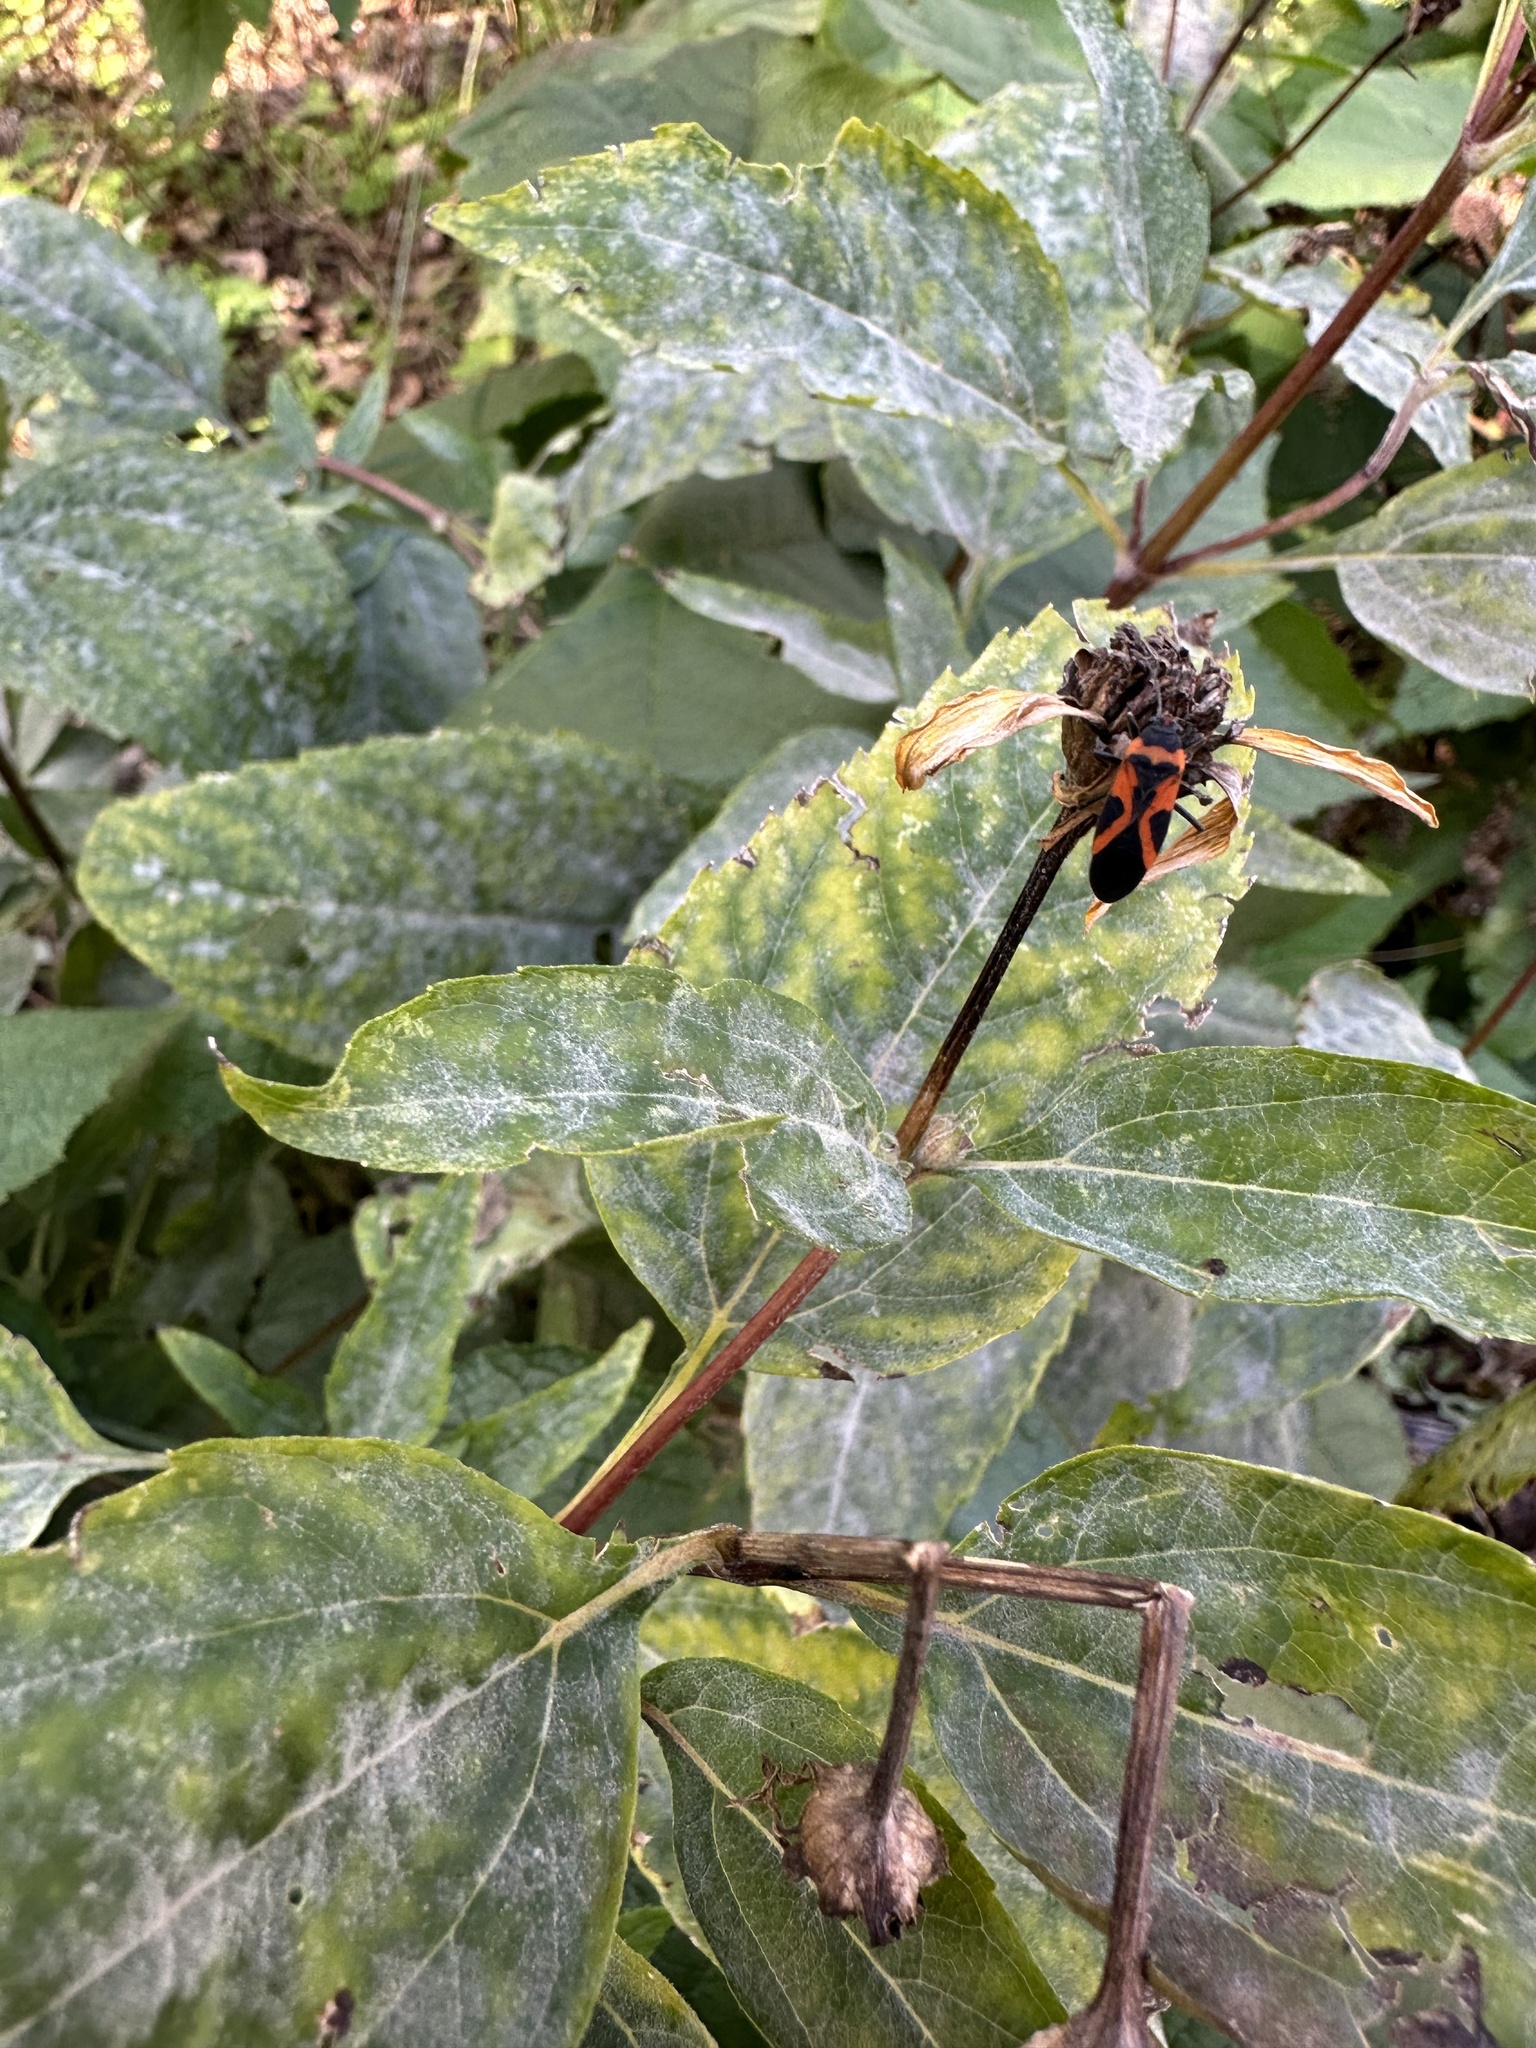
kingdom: Animalia
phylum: Arthropoda
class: Insecta
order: Hemiptera
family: Lygaeidae
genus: Lygaeus
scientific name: Lygaeus turcicus
